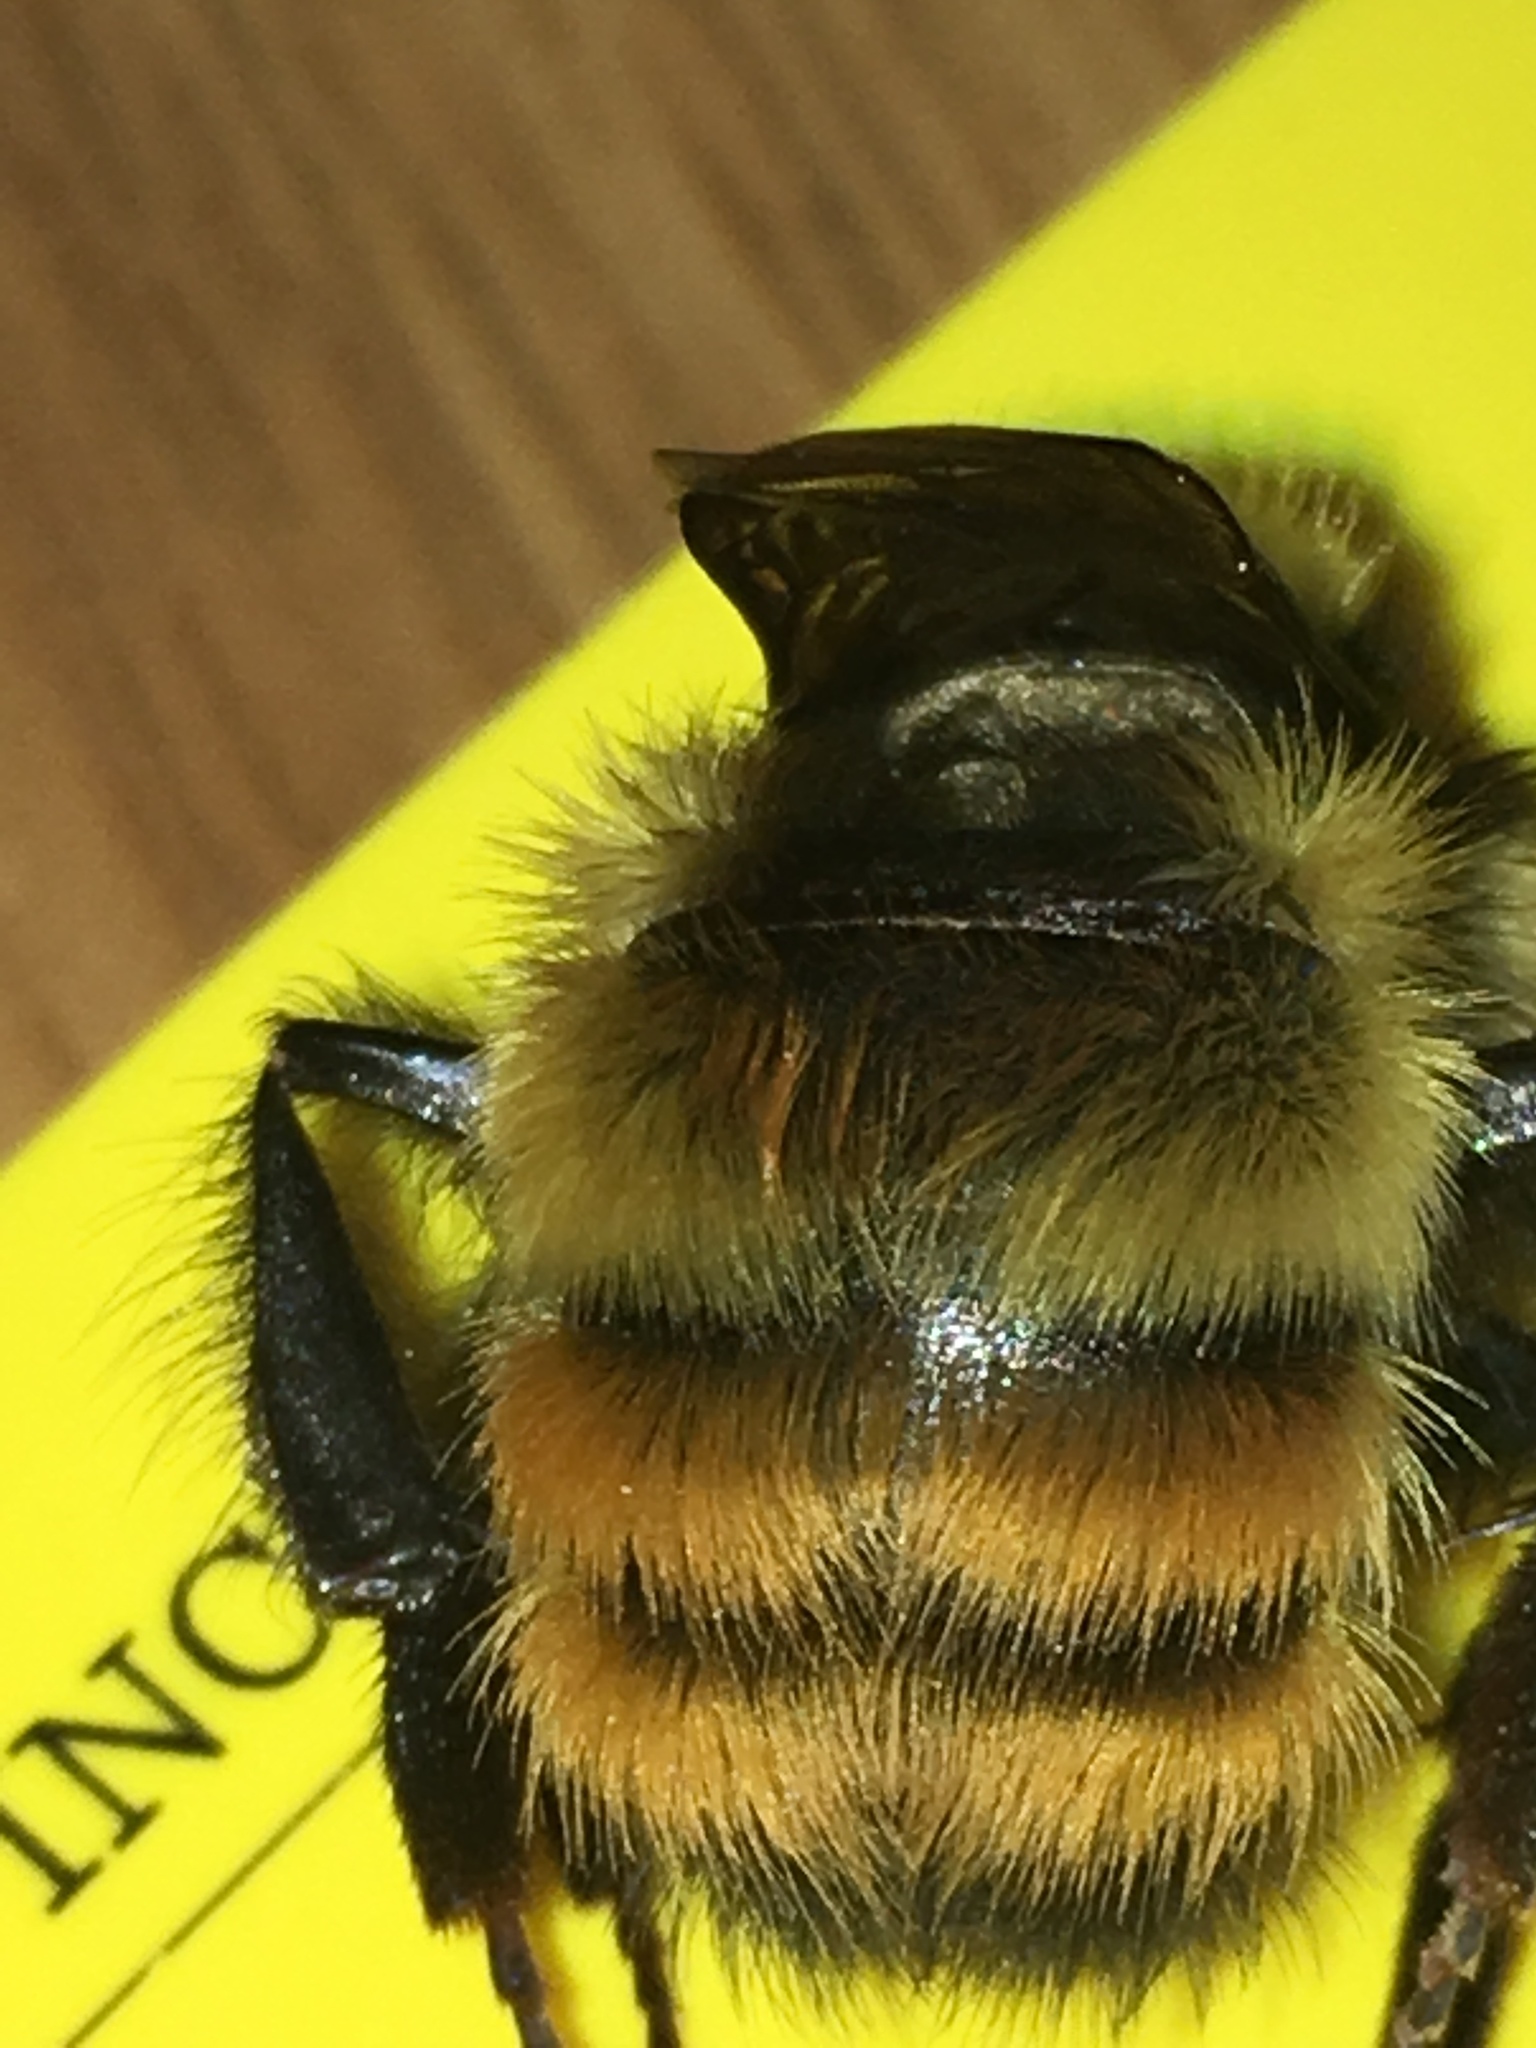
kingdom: Animalia
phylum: Arthropoda
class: Insecta
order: Hymenoptera
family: Apidae
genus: Bombus
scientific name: Bombus centralis
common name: Central bumble bee
